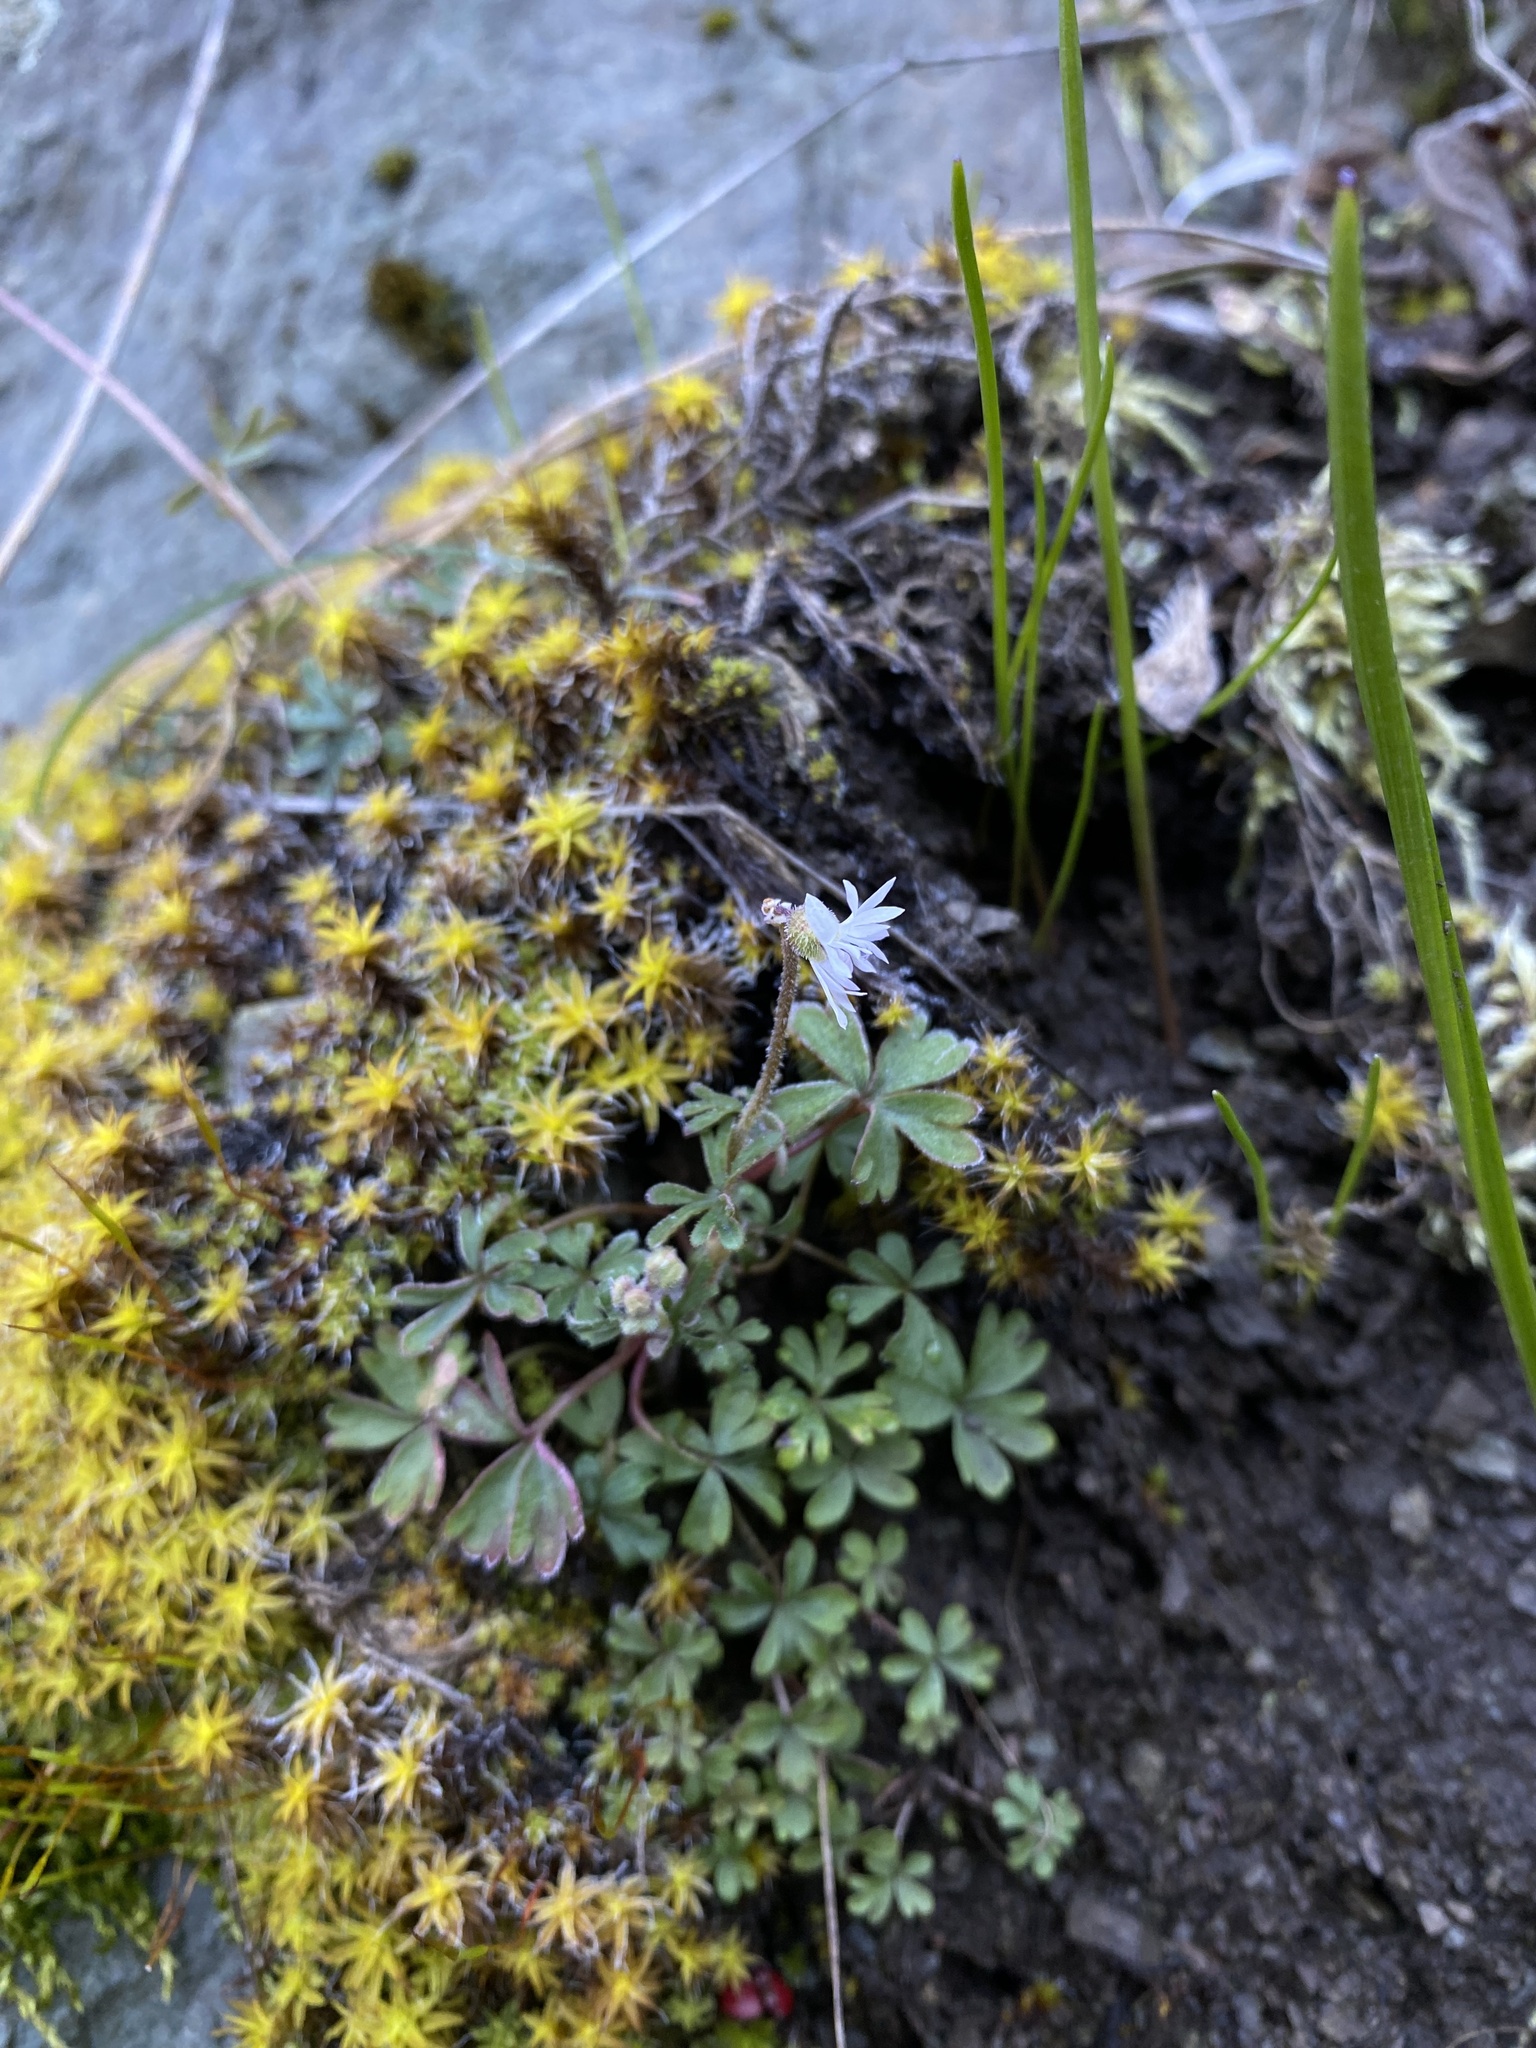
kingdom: Plantae
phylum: Tracheophyta
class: Magnoliopsida
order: Saxifragales
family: Saxifragaceae
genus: Lithophragma
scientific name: Lithophragma glabrum
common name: Bulbous prairie-star
